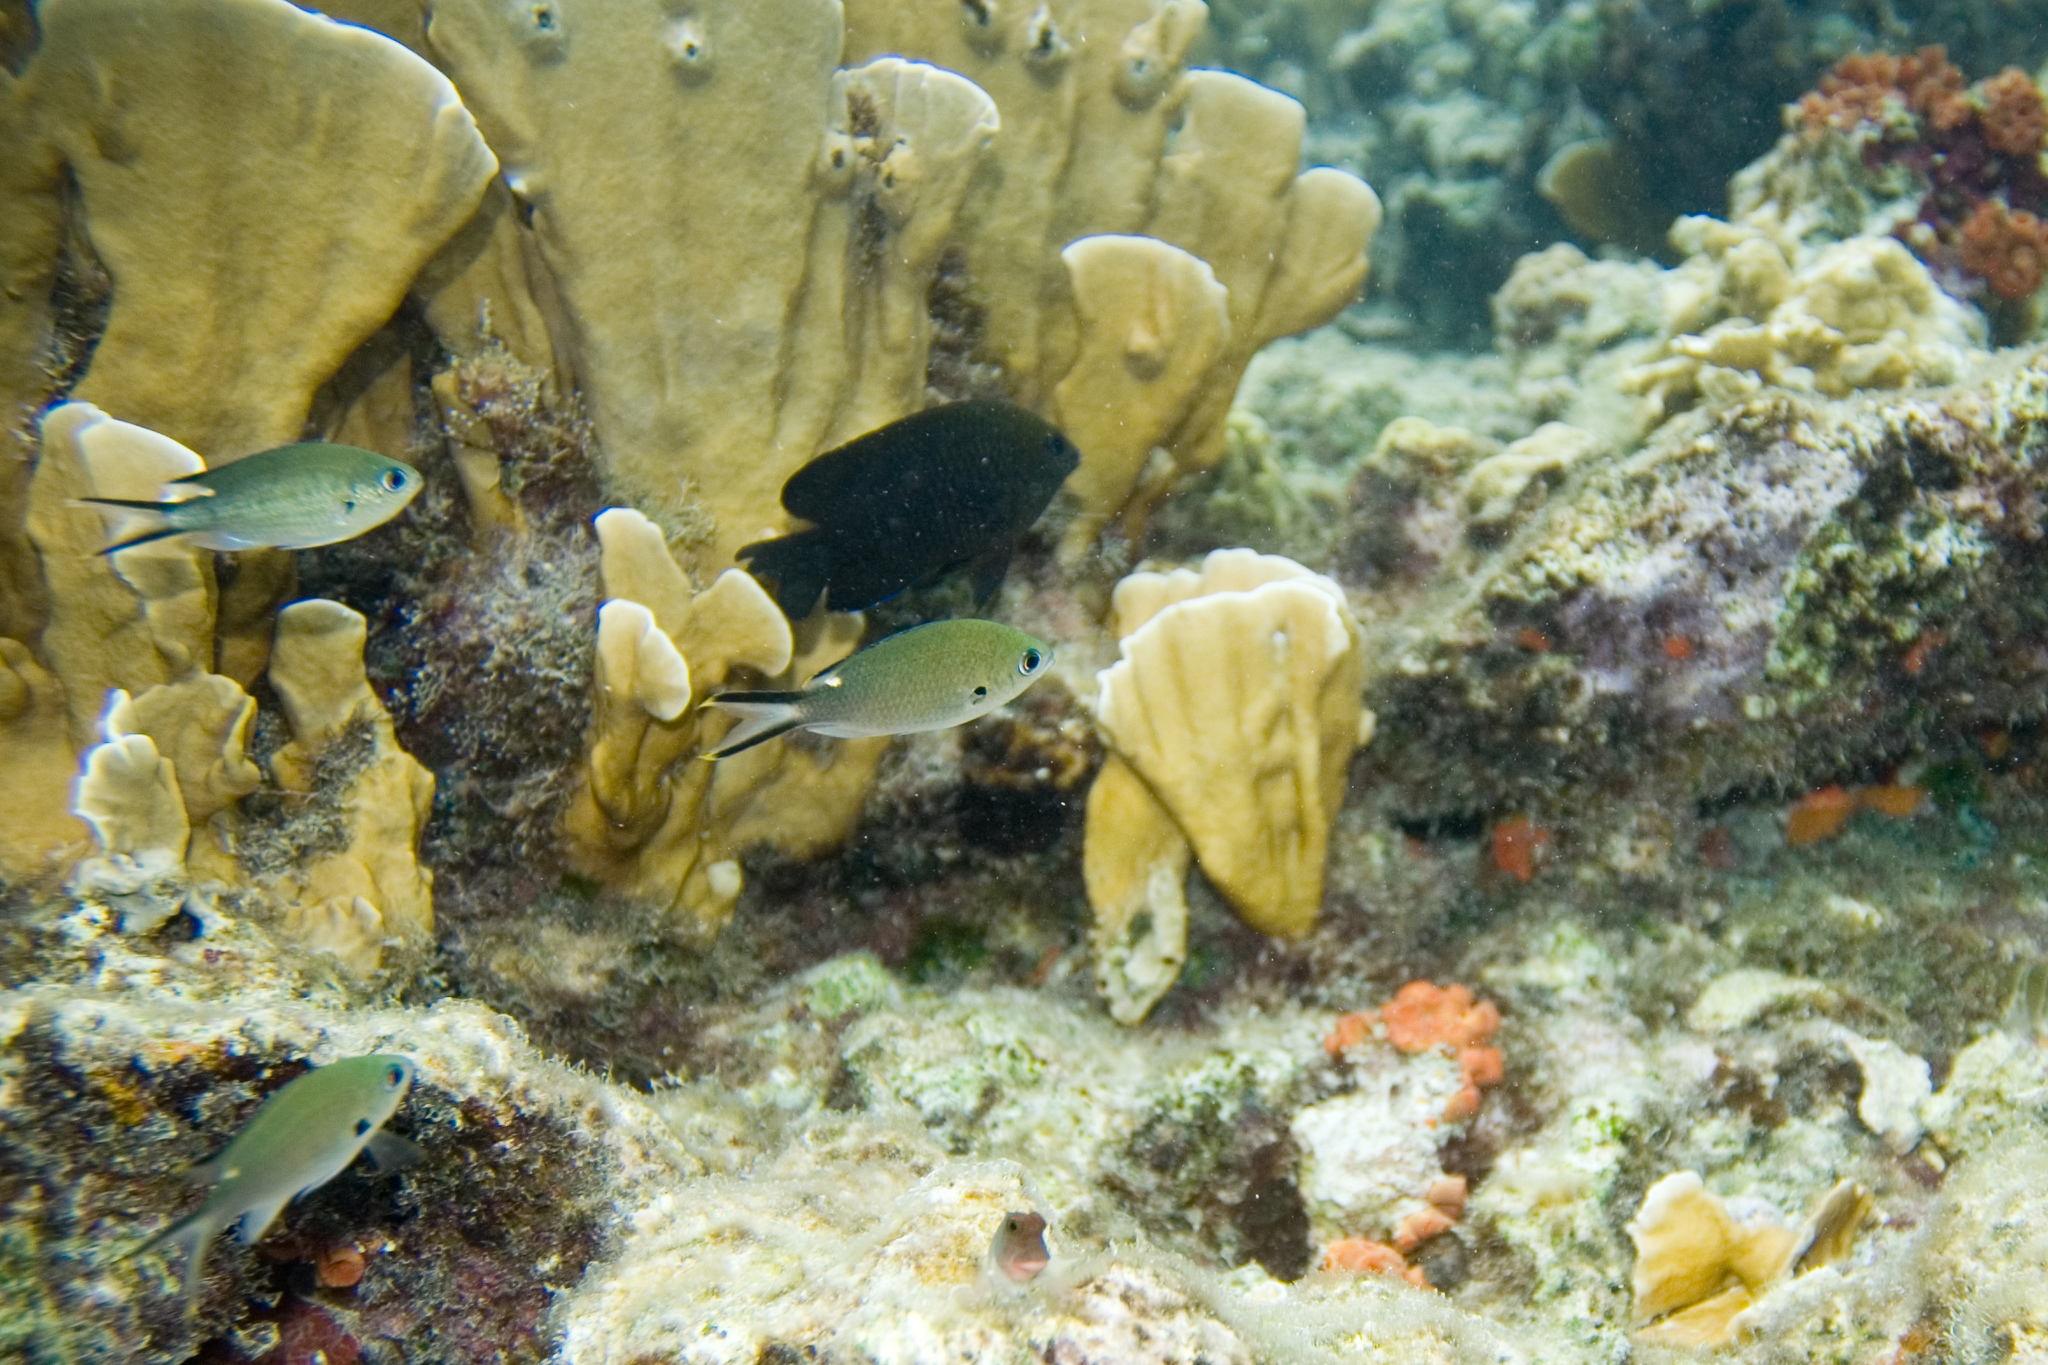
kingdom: Animalia
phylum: Chordata
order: Perciformes
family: Blenniidae
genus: Ophioblennius
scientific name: Ophioblennius macclurei
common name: Redlip blenny
